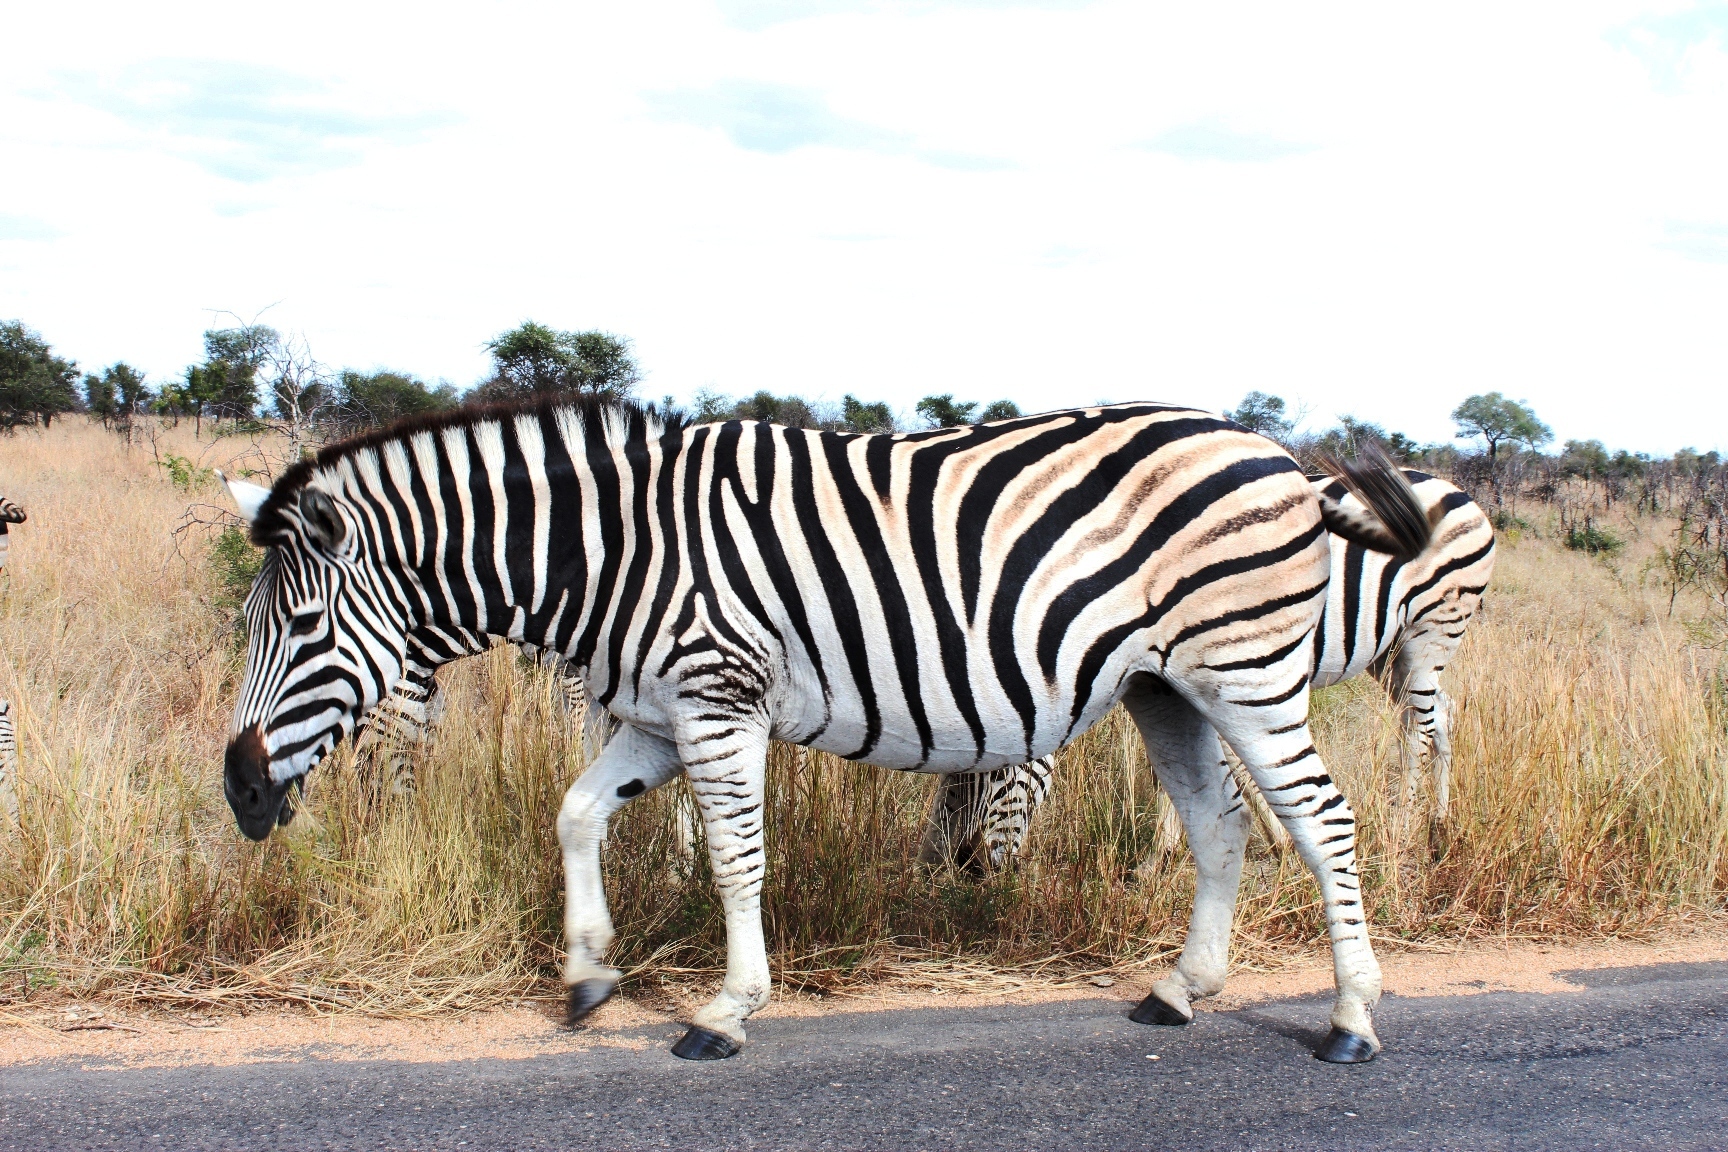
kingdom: Animalia
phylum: Chordata
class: Mammalia
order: Perissodactyla
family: Equidae
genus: Equus
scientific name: Equus quagga
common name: Plains zebra
